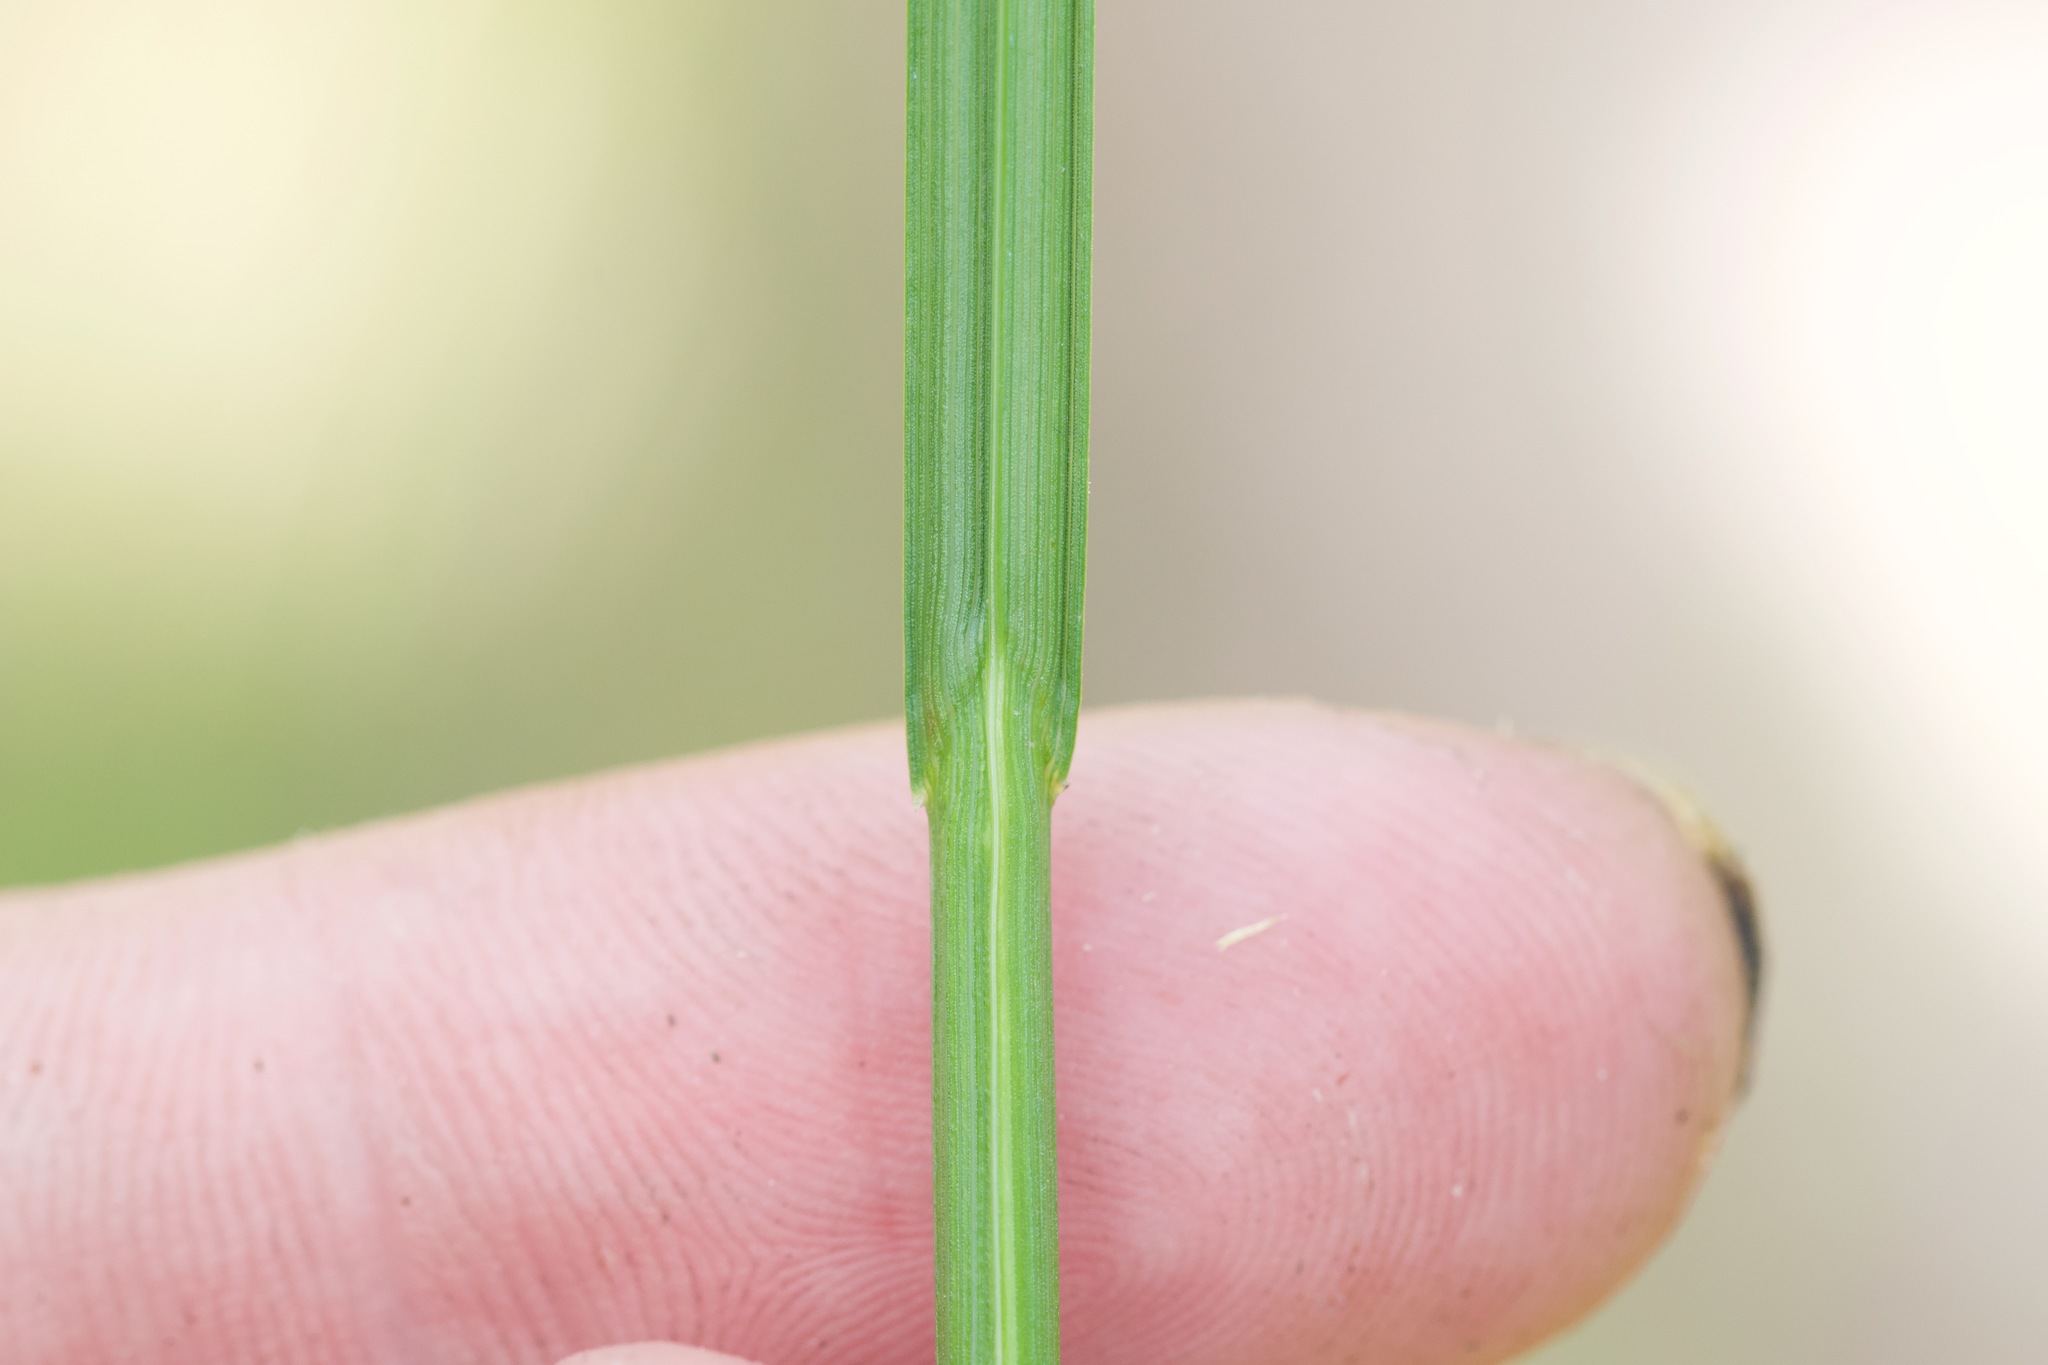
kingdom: Plantae
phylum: Tracheophyta
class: Liliopsida
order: Poales
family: Cyperaceae
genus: Carex
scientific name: Carex scoparia
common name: Broom sedge
